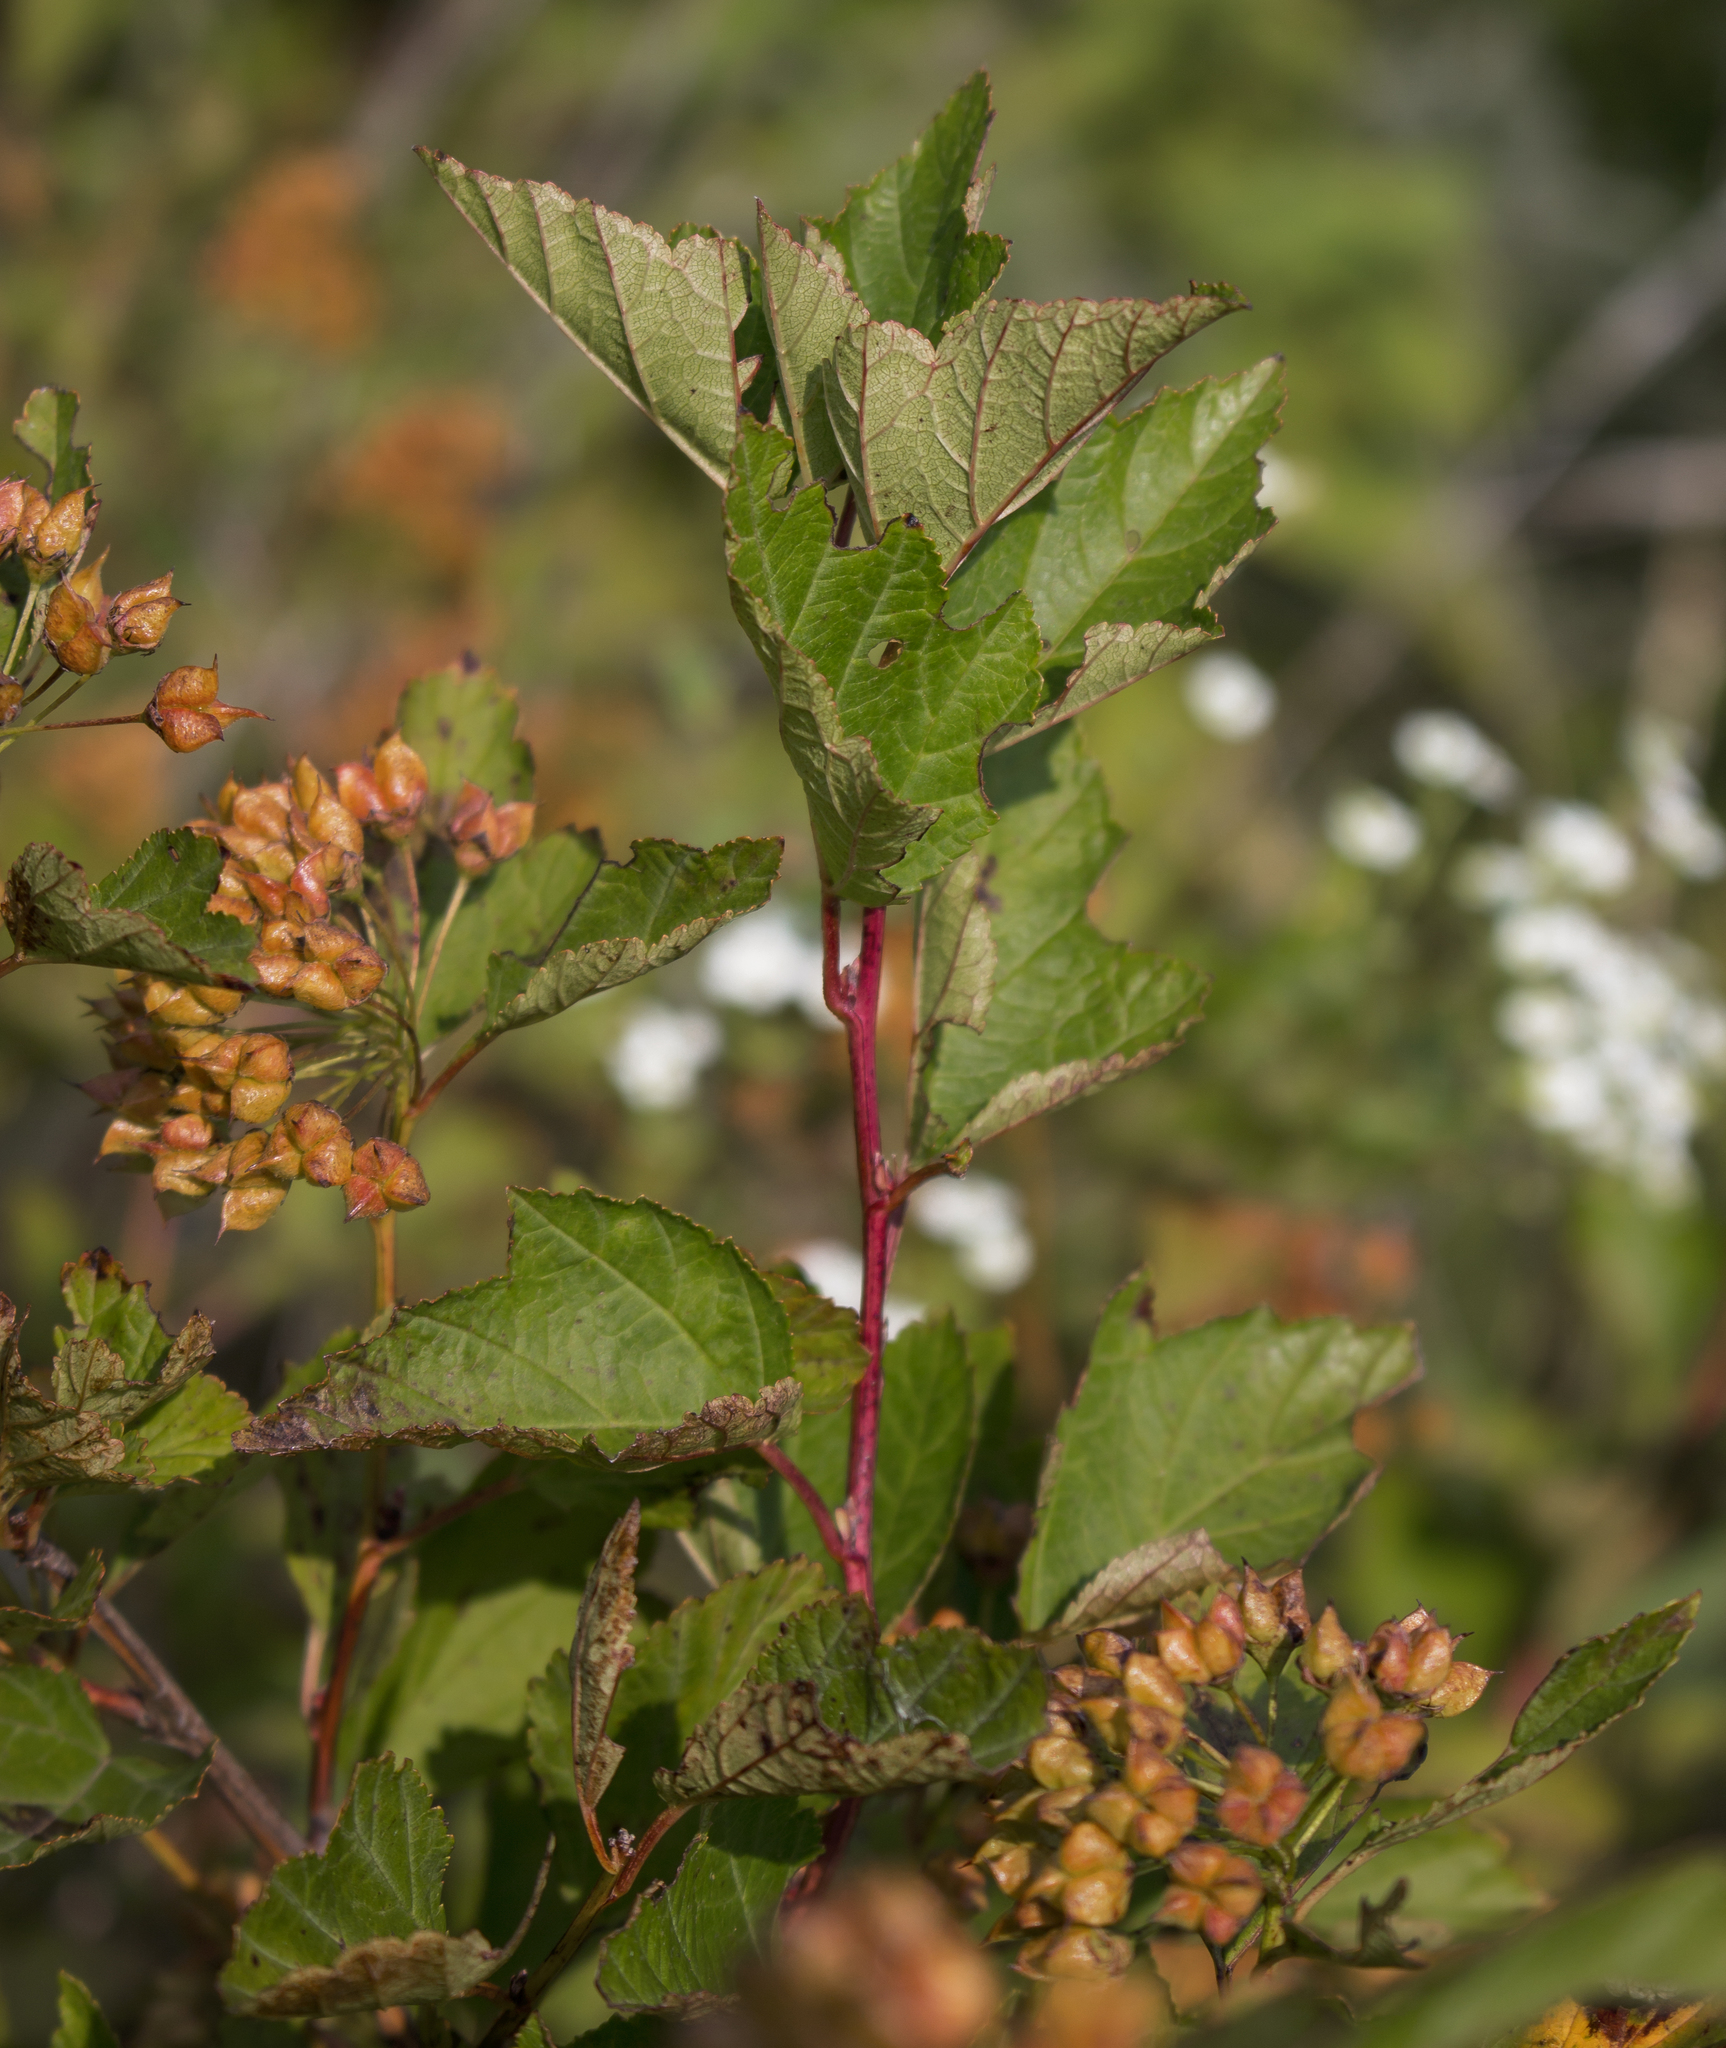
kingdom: Plantae
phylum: Tracheophyta
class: Magnoliopsida
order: Rosales
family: Rosaceae
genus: Physocarpus
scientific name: Physocarpus intermedius
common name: Midwestern ninebark
